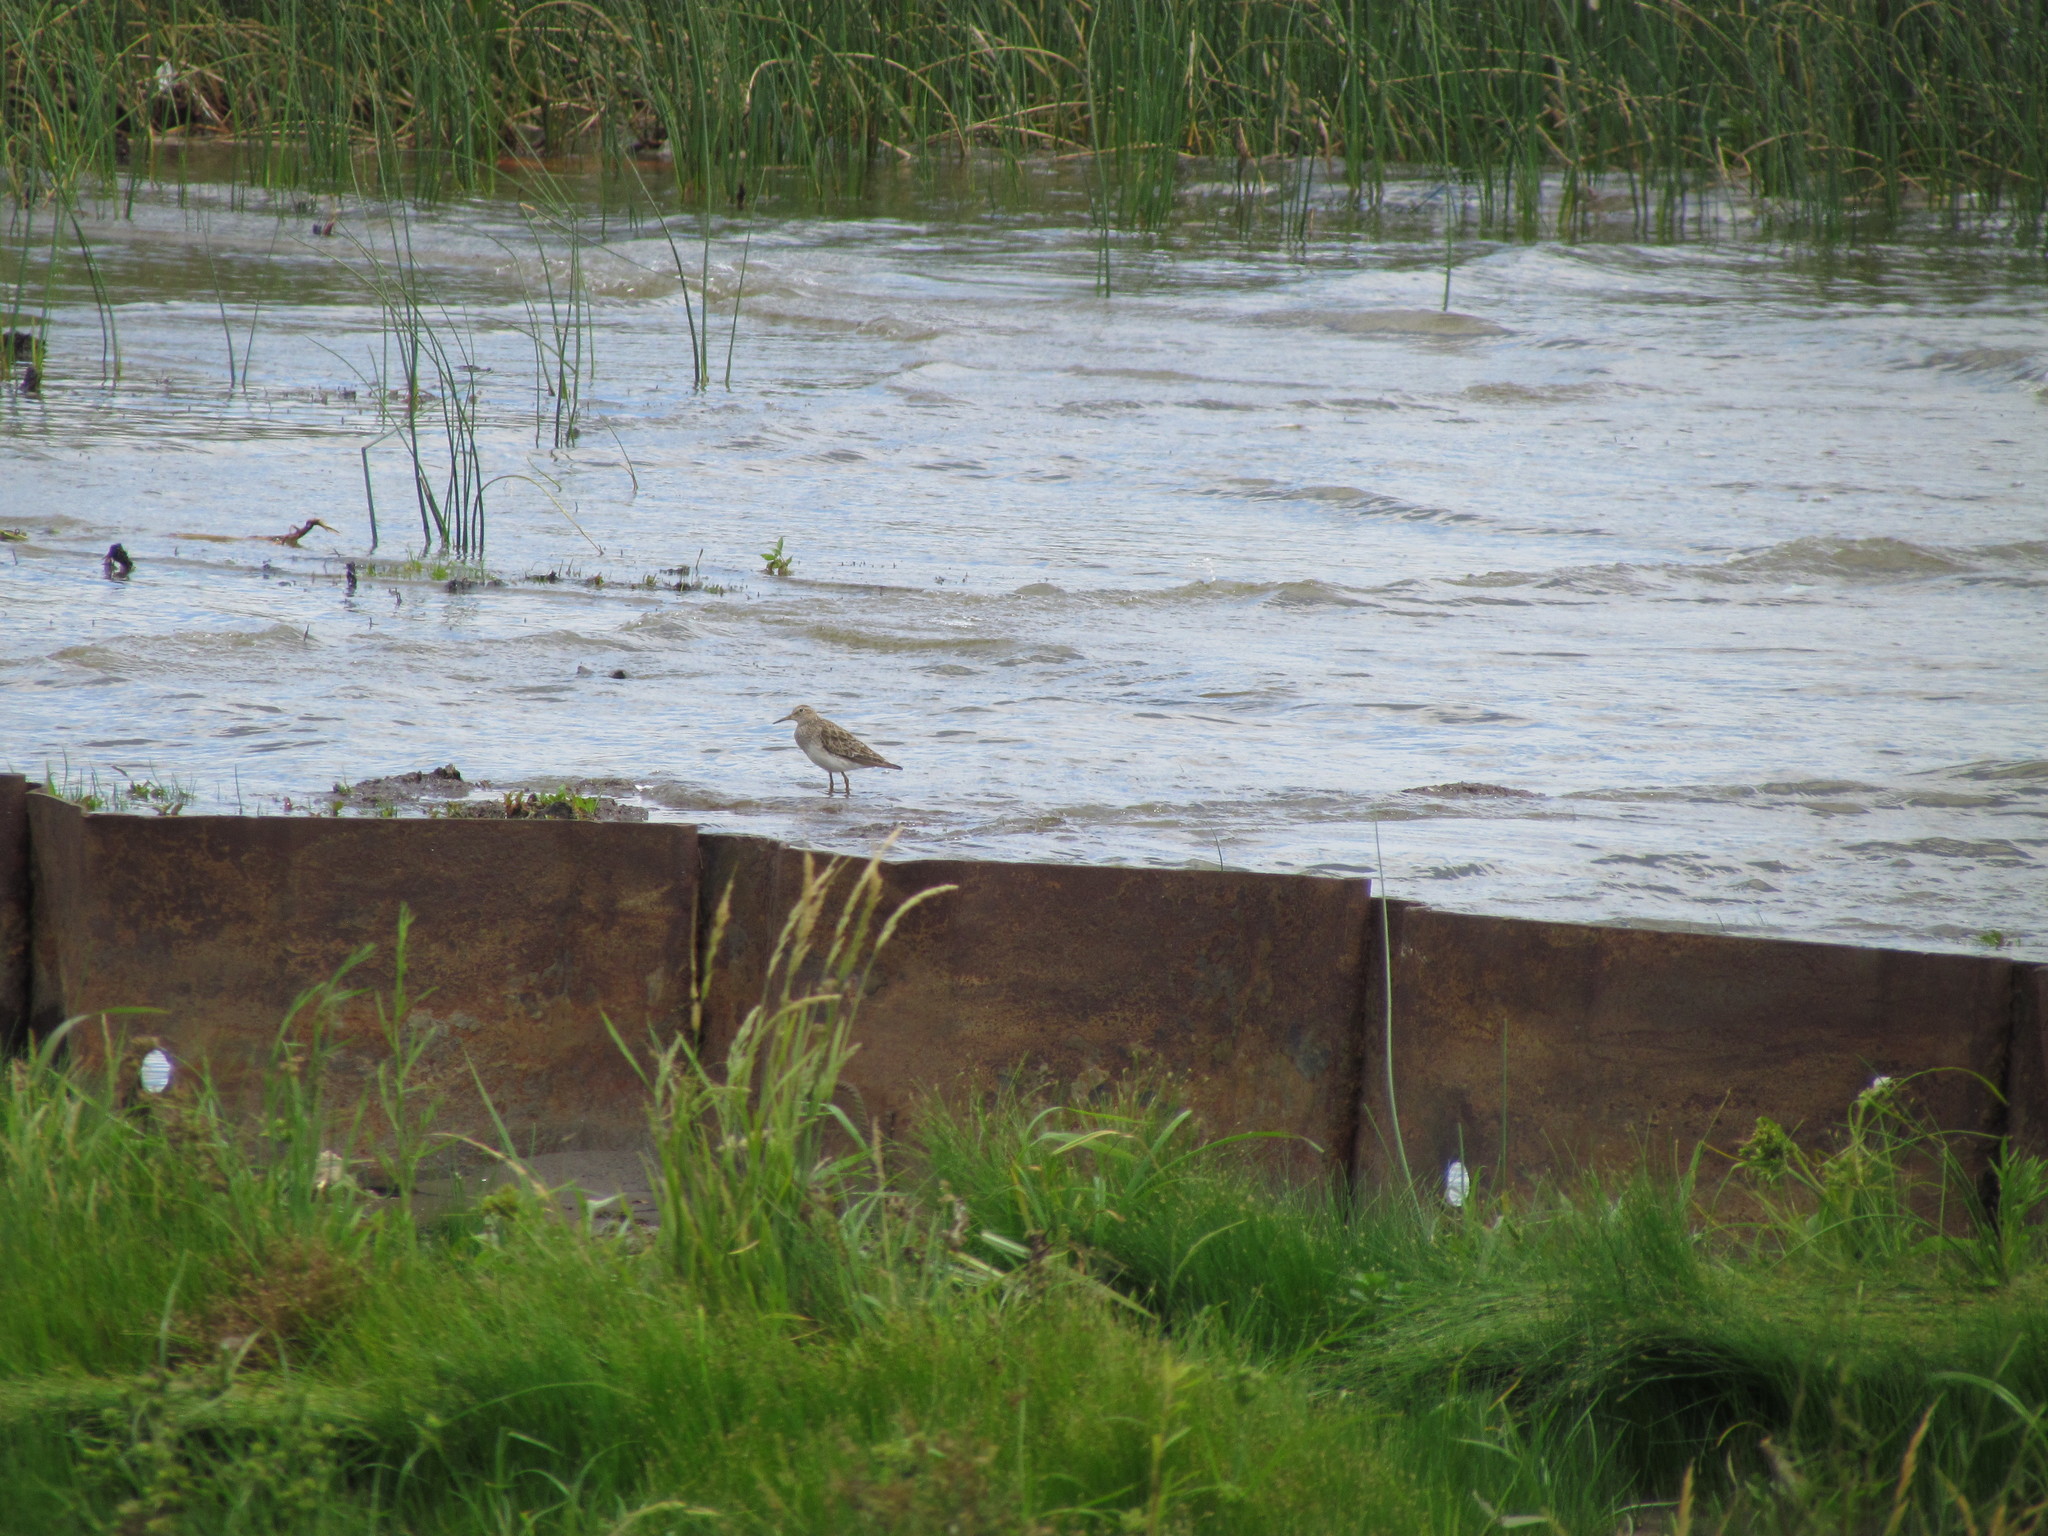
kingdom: Animalia
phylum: Chordata
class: Aves
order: Charadriiformes
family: Scolopacidae
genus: Calidris
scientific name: Calidris melanotos
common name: Pectoral sandpiper
